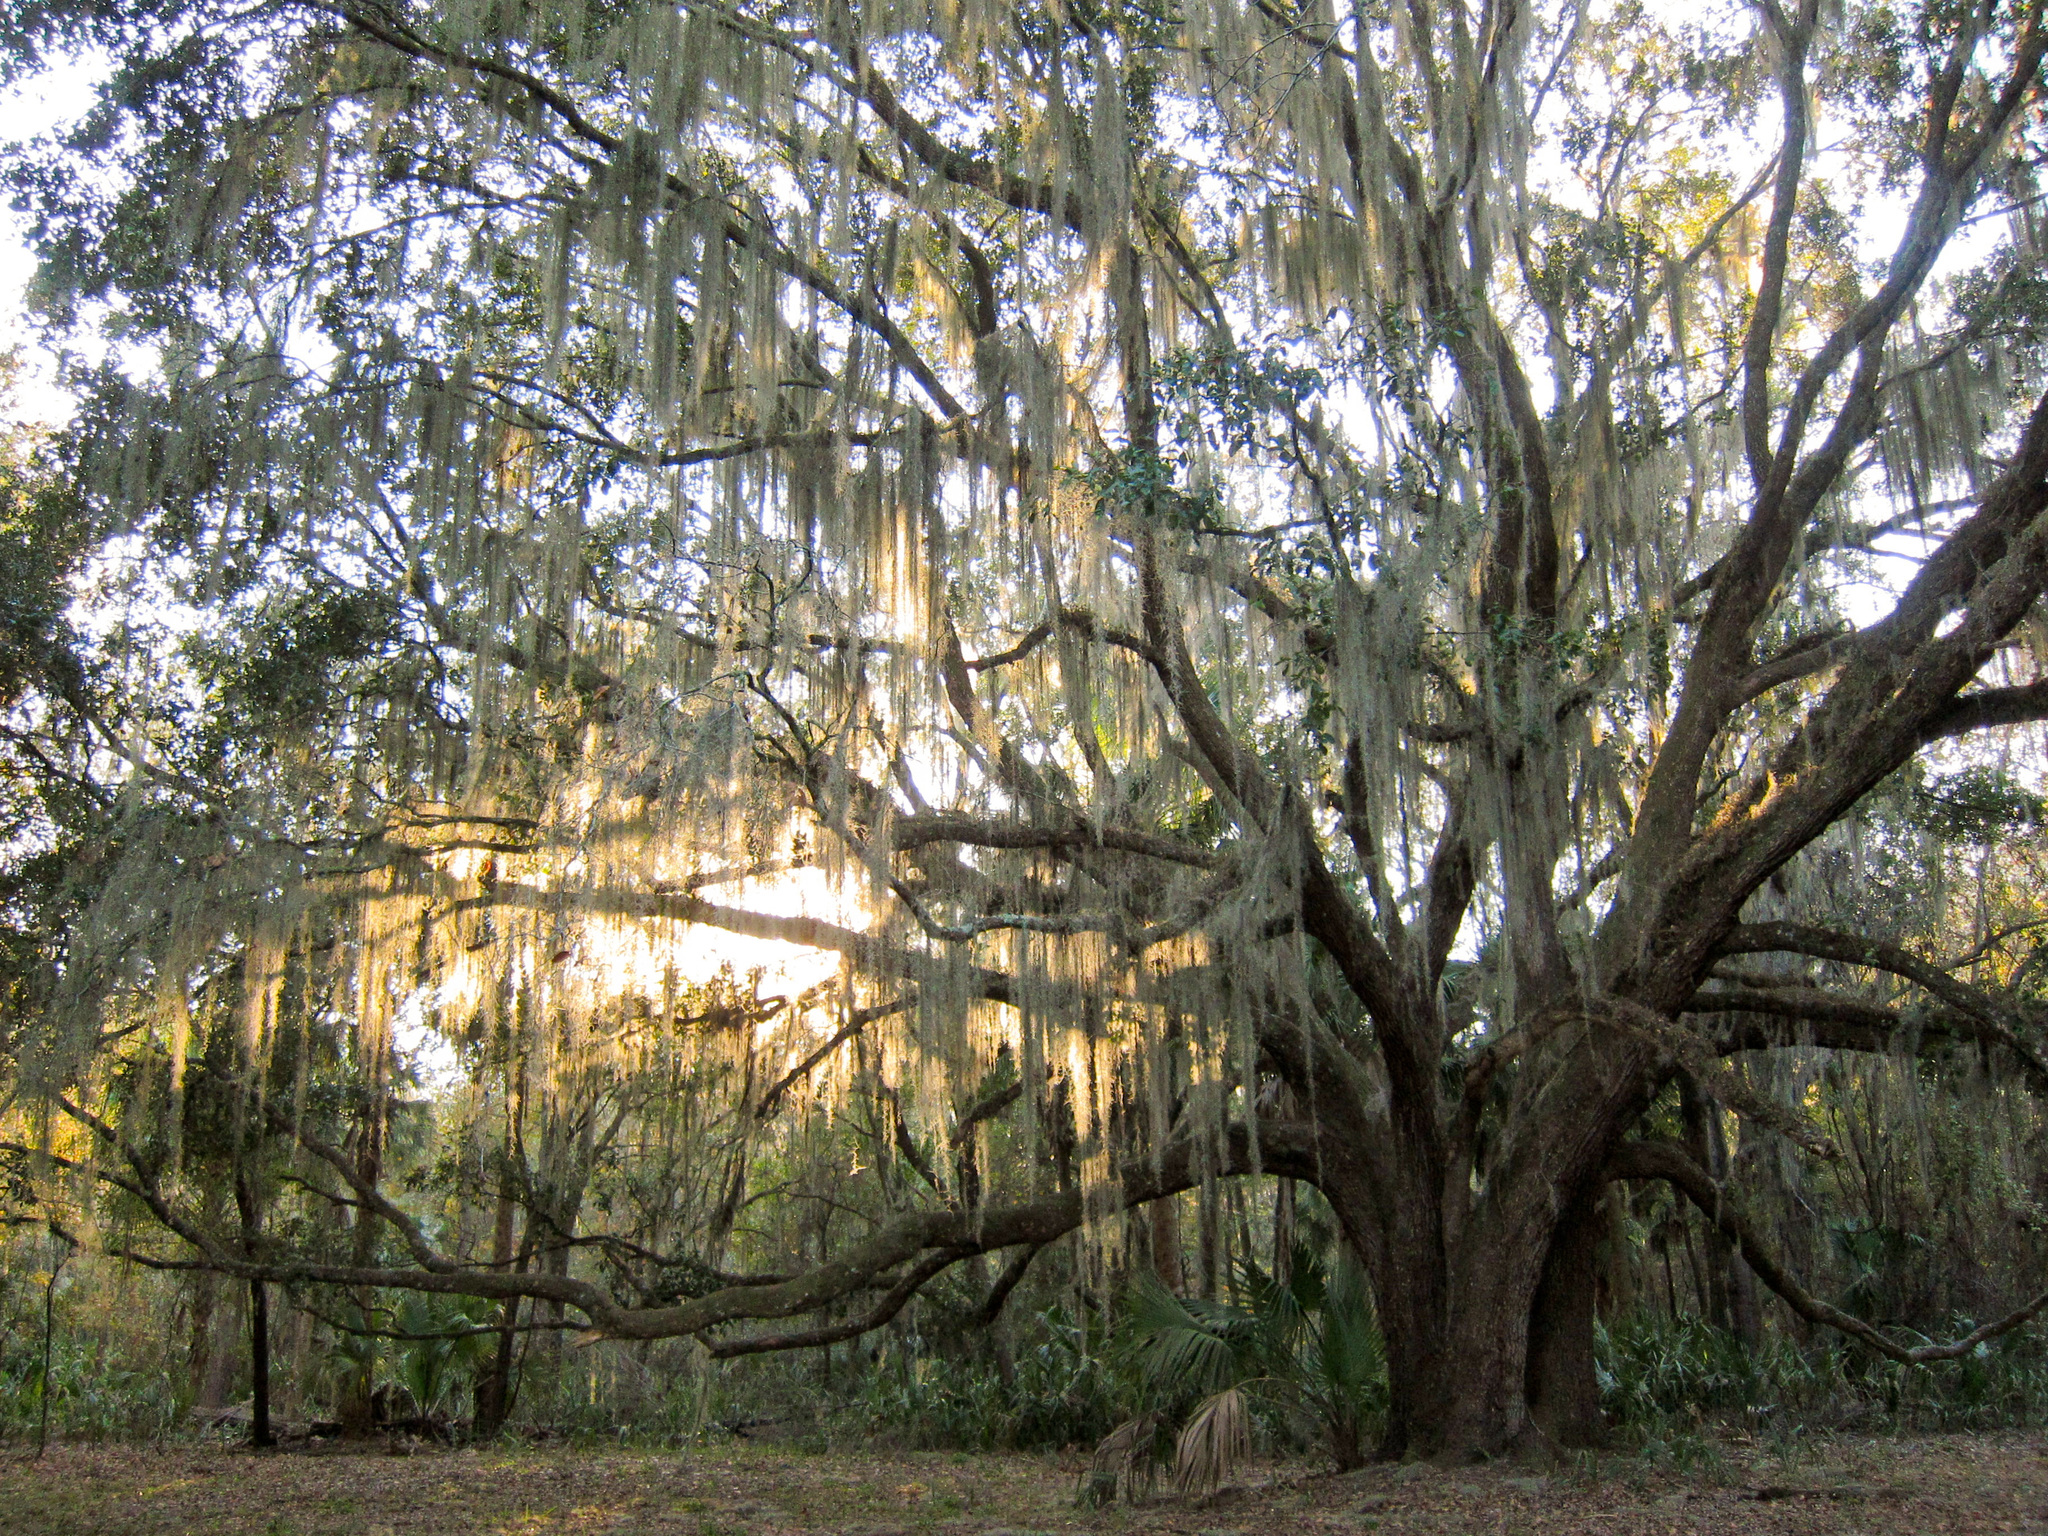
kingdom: Plantae
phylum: Tracheophyta
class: Magnoliopsida
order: Fagales
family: Fagaceae
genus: Quercus
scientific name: Quercus virginiana
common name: Southern live oak
